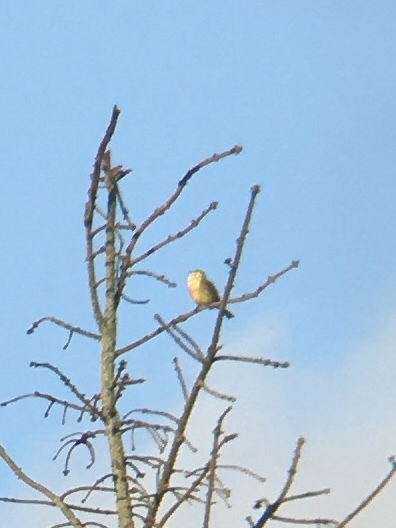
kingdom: Animalia
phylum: Chordata
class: Aves
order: Passeriformes
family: Emberizidae
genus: Emberiza
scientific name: Emberiza citrinella
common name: Yellowhammer
